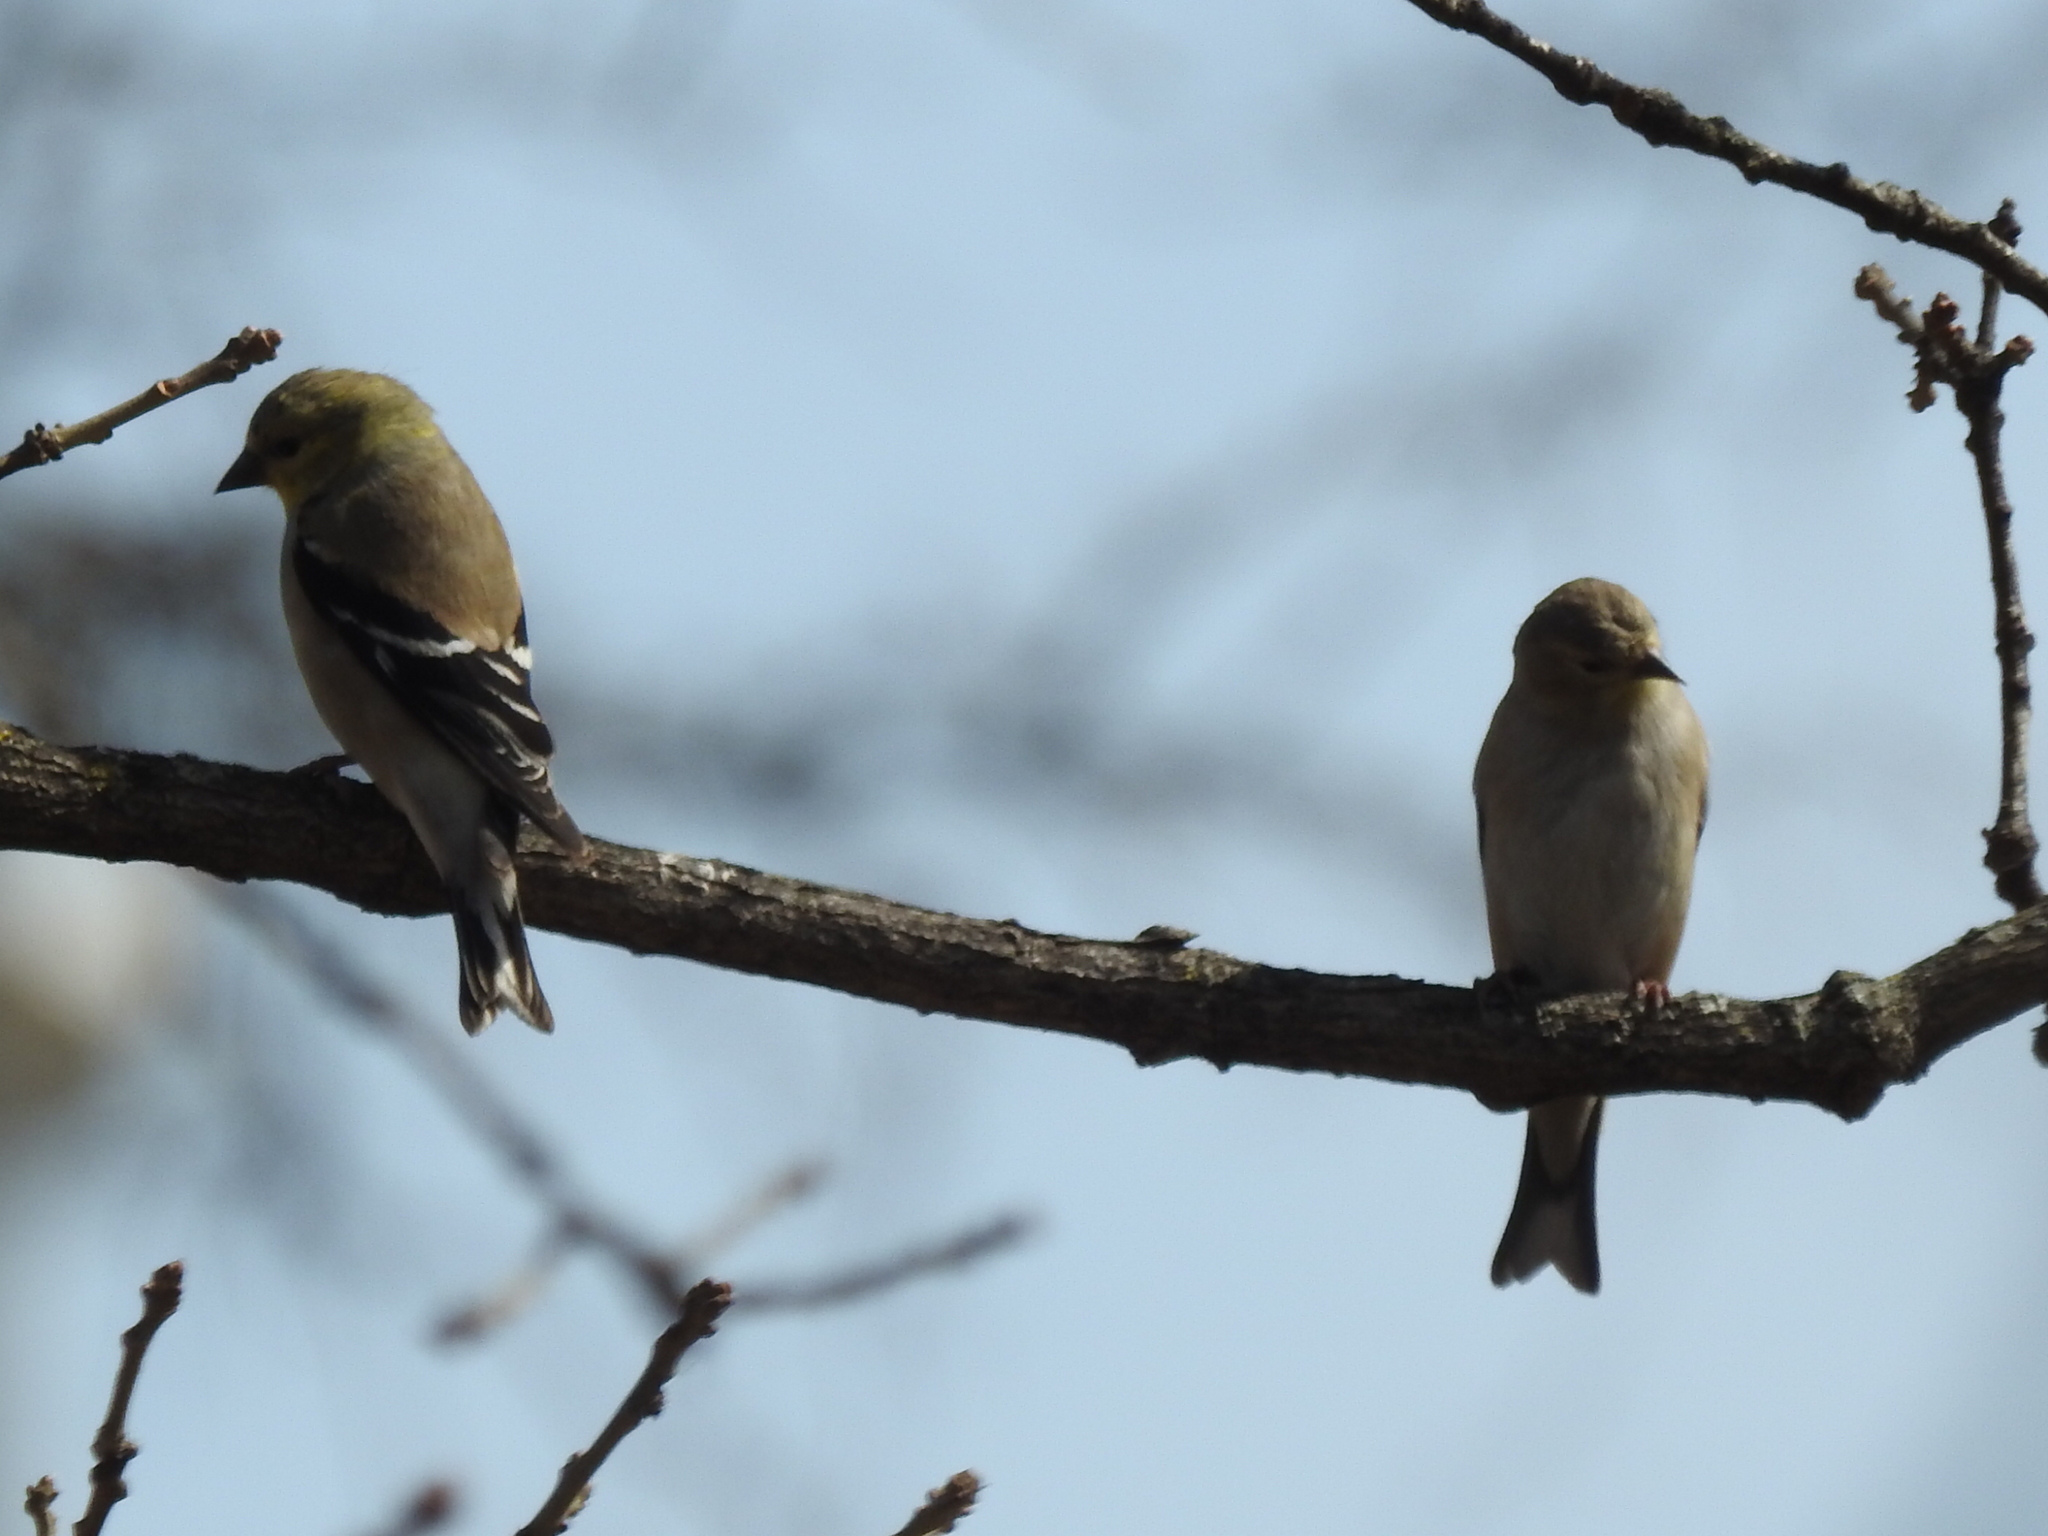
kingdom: Animalia
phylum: Chordata
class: Aves
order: Passeriformes
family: Fringillidae
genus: Spinus
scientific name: Spinus tristis
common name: American goldfinch
